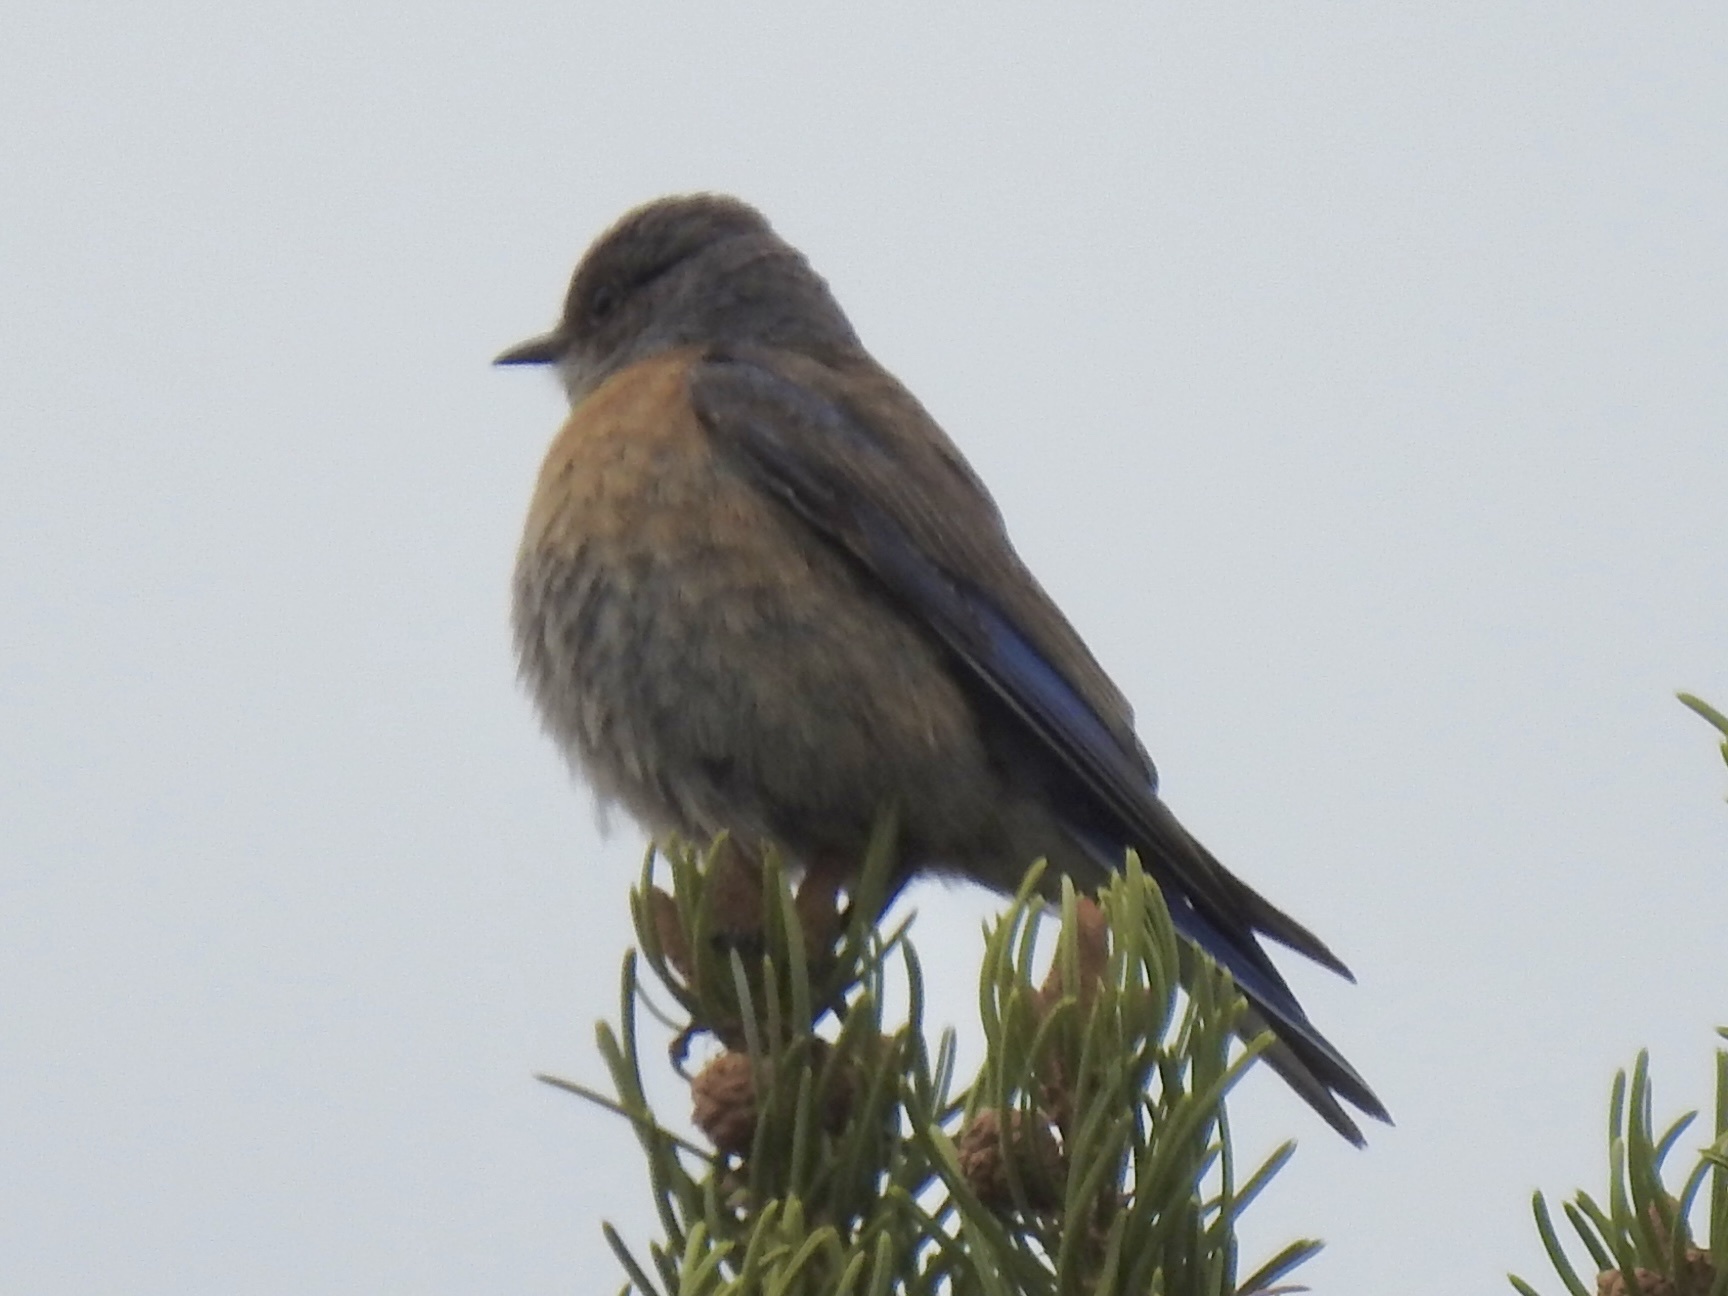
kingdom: Animalia
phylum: Chordata
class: Aves
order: Passeriformes
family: Turdidae
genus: Sialia
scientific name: Sialia mexicana
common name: Western bluebird
